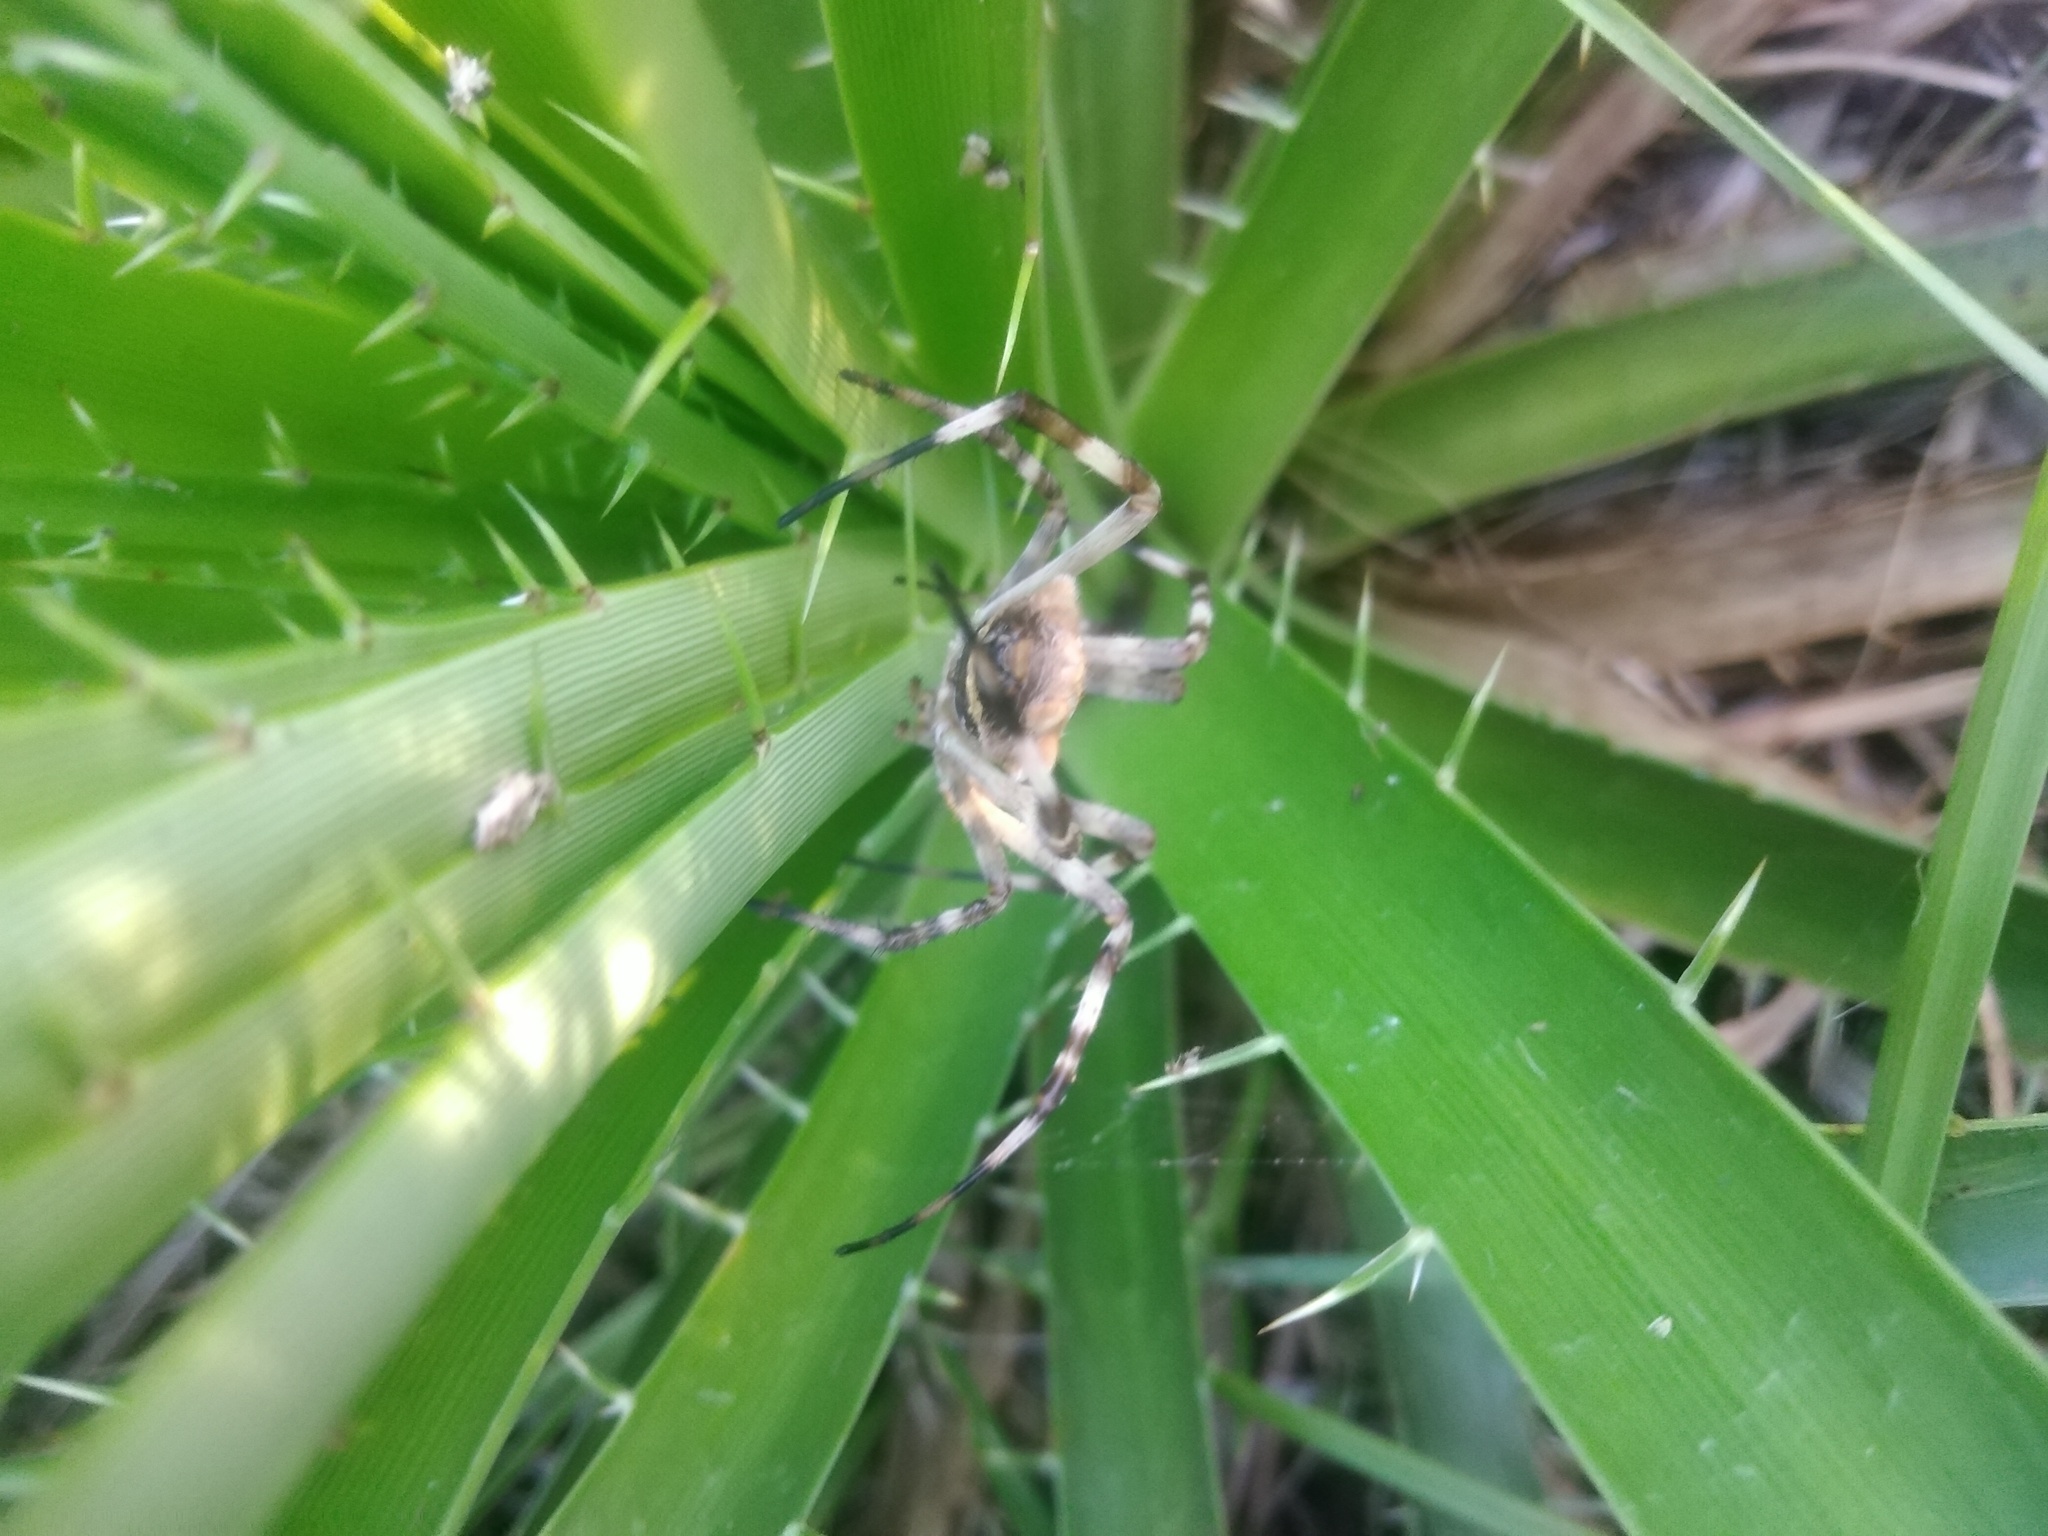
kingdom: Animalia
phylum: Arthropoda
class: Arachnida
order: Araneae
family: Araneidae
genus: Argiope
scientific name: Argiope argentata
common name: Orb weavers
